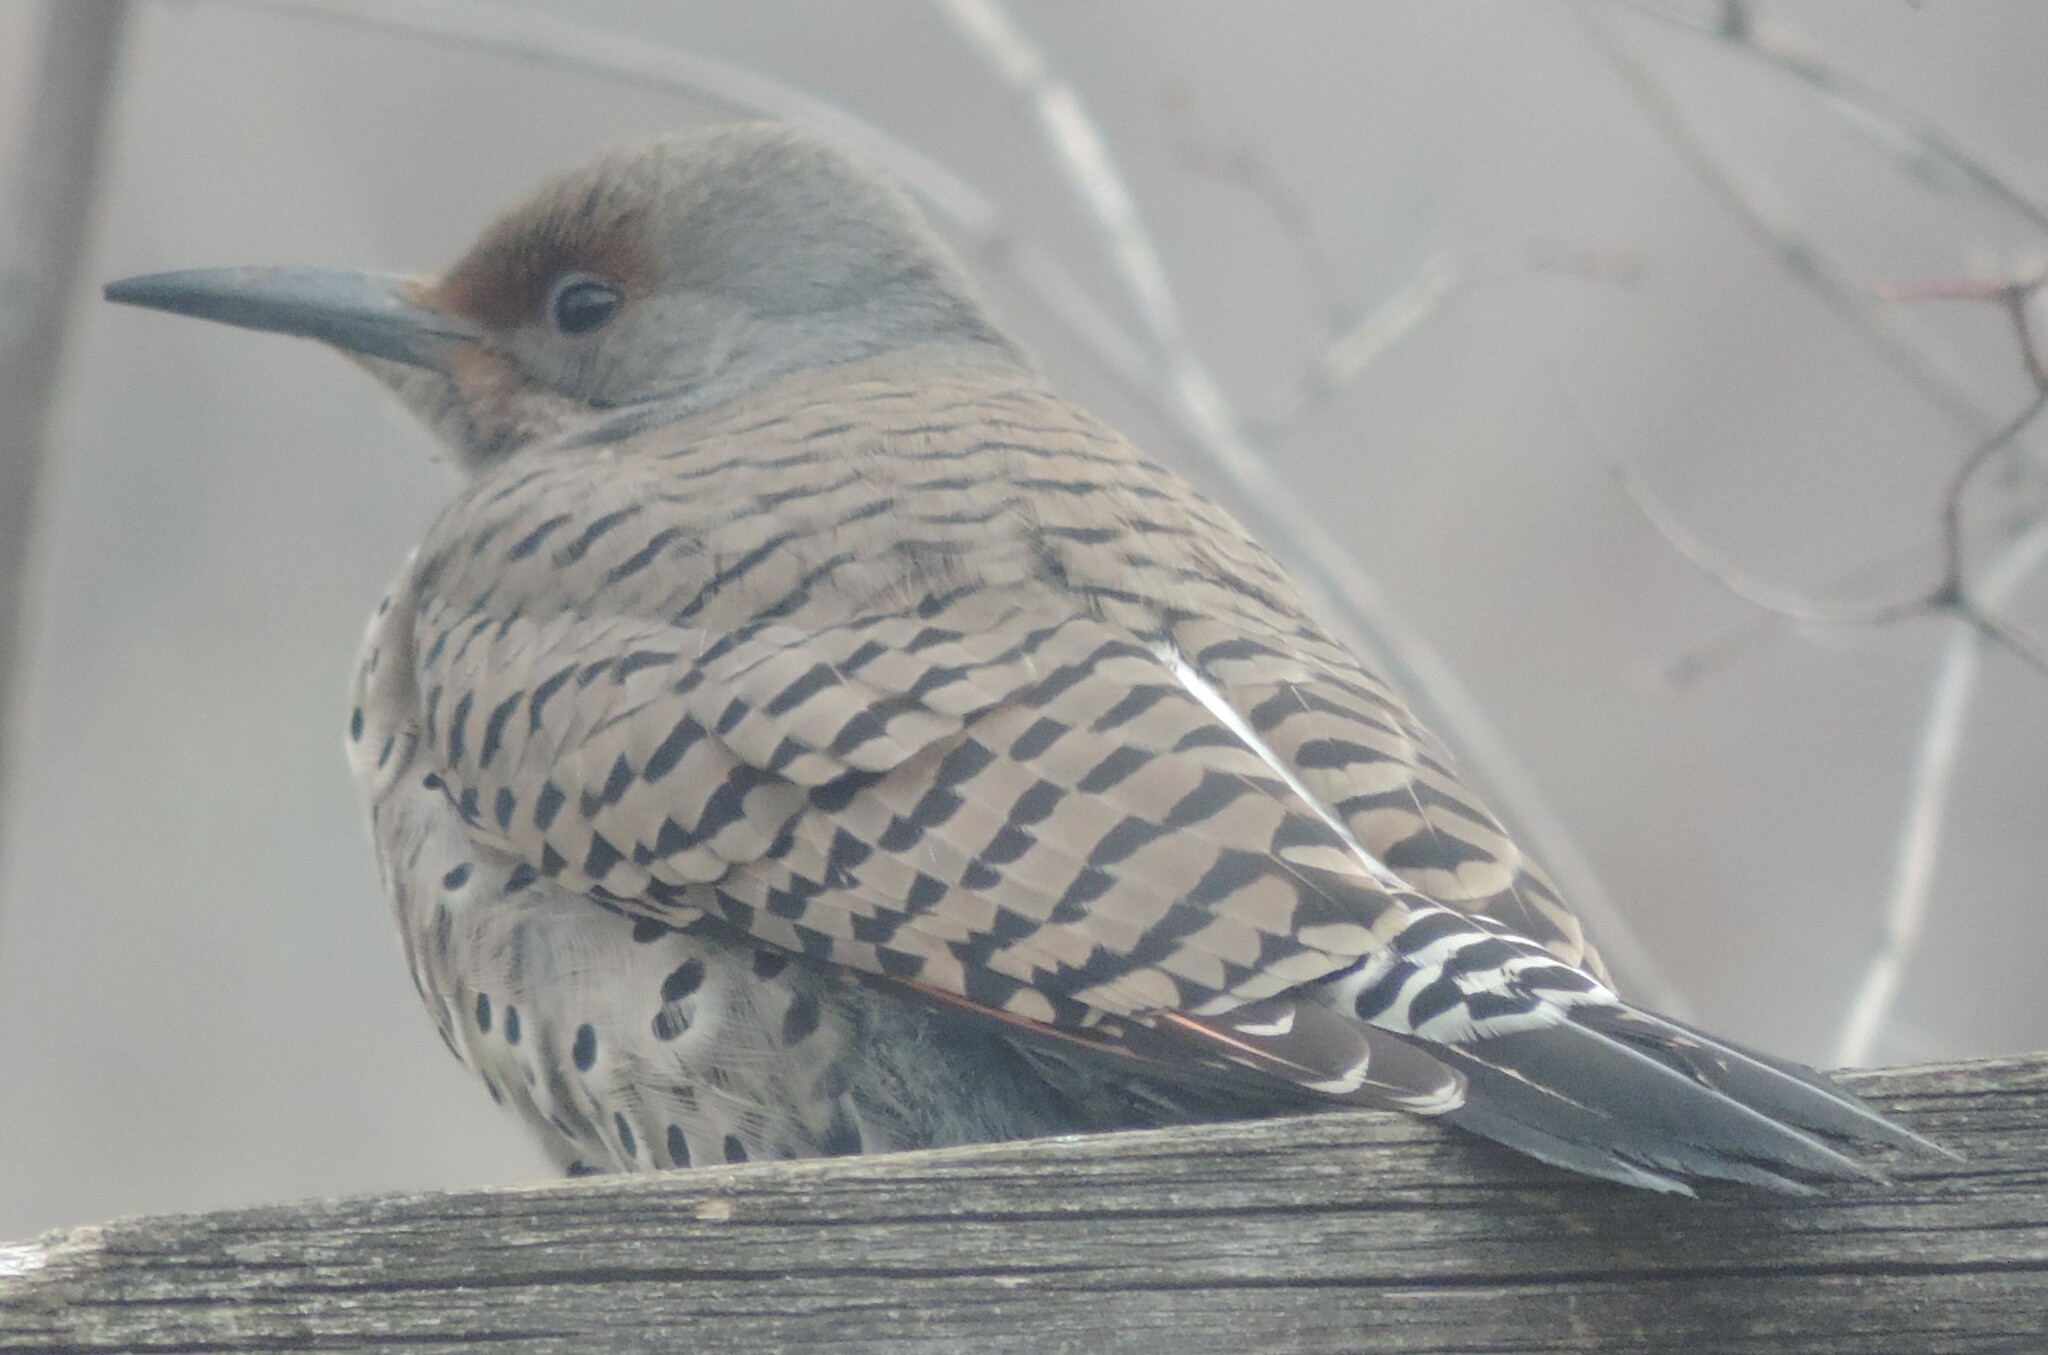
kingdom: Animalia
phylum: Chordata
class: Aves
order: Piciformes
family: Picidae
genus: Colaptes
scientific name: Colaptes auratus
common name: Northern flicker
